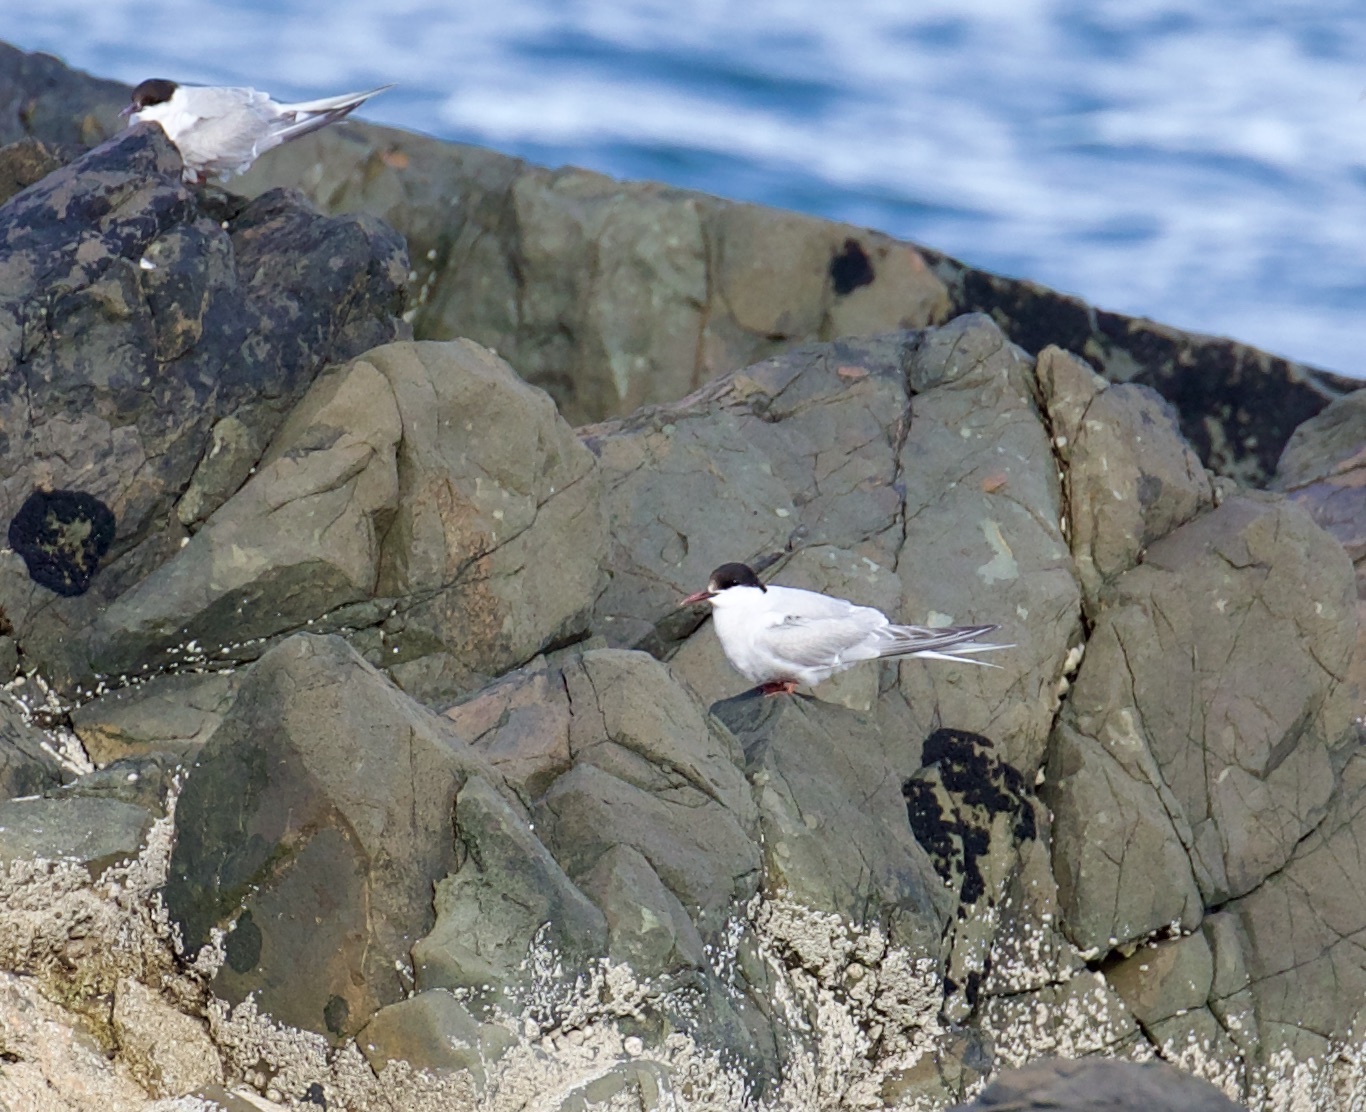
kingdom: Animalia
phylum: Chordata
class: Aves
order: Charadriiformes
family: Laridae
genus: Sterna
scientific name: Sterna paradisaea
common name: Arctic tern
